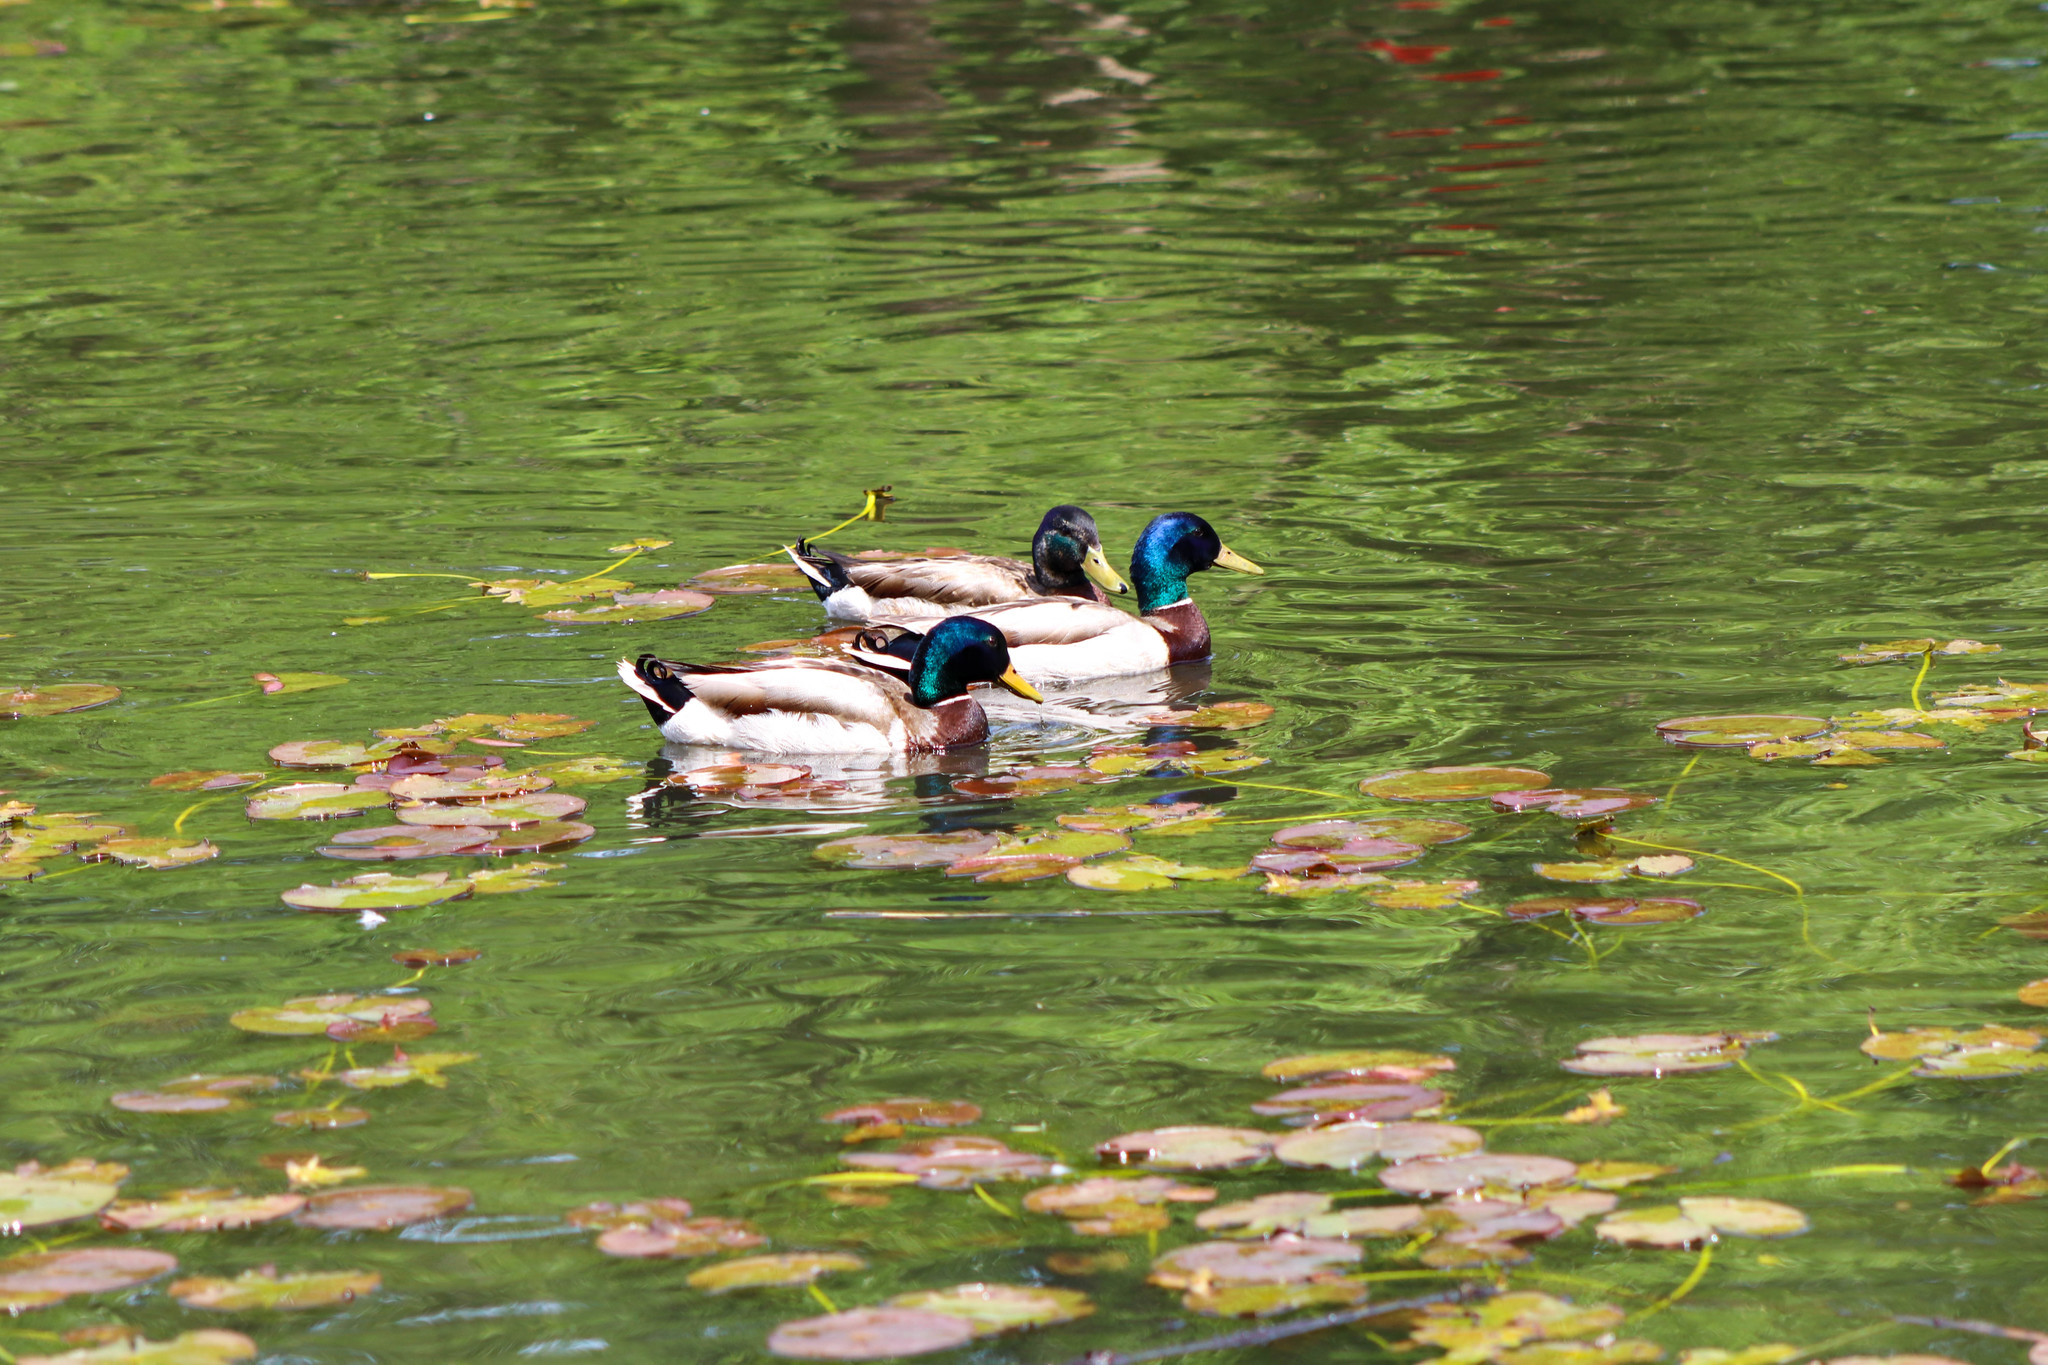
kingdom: Animalia
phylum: Chordata
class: Aves
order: Anseriformes
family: Anatidae
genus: Anas
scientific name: Anas platyrhynchos
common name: Mallard
